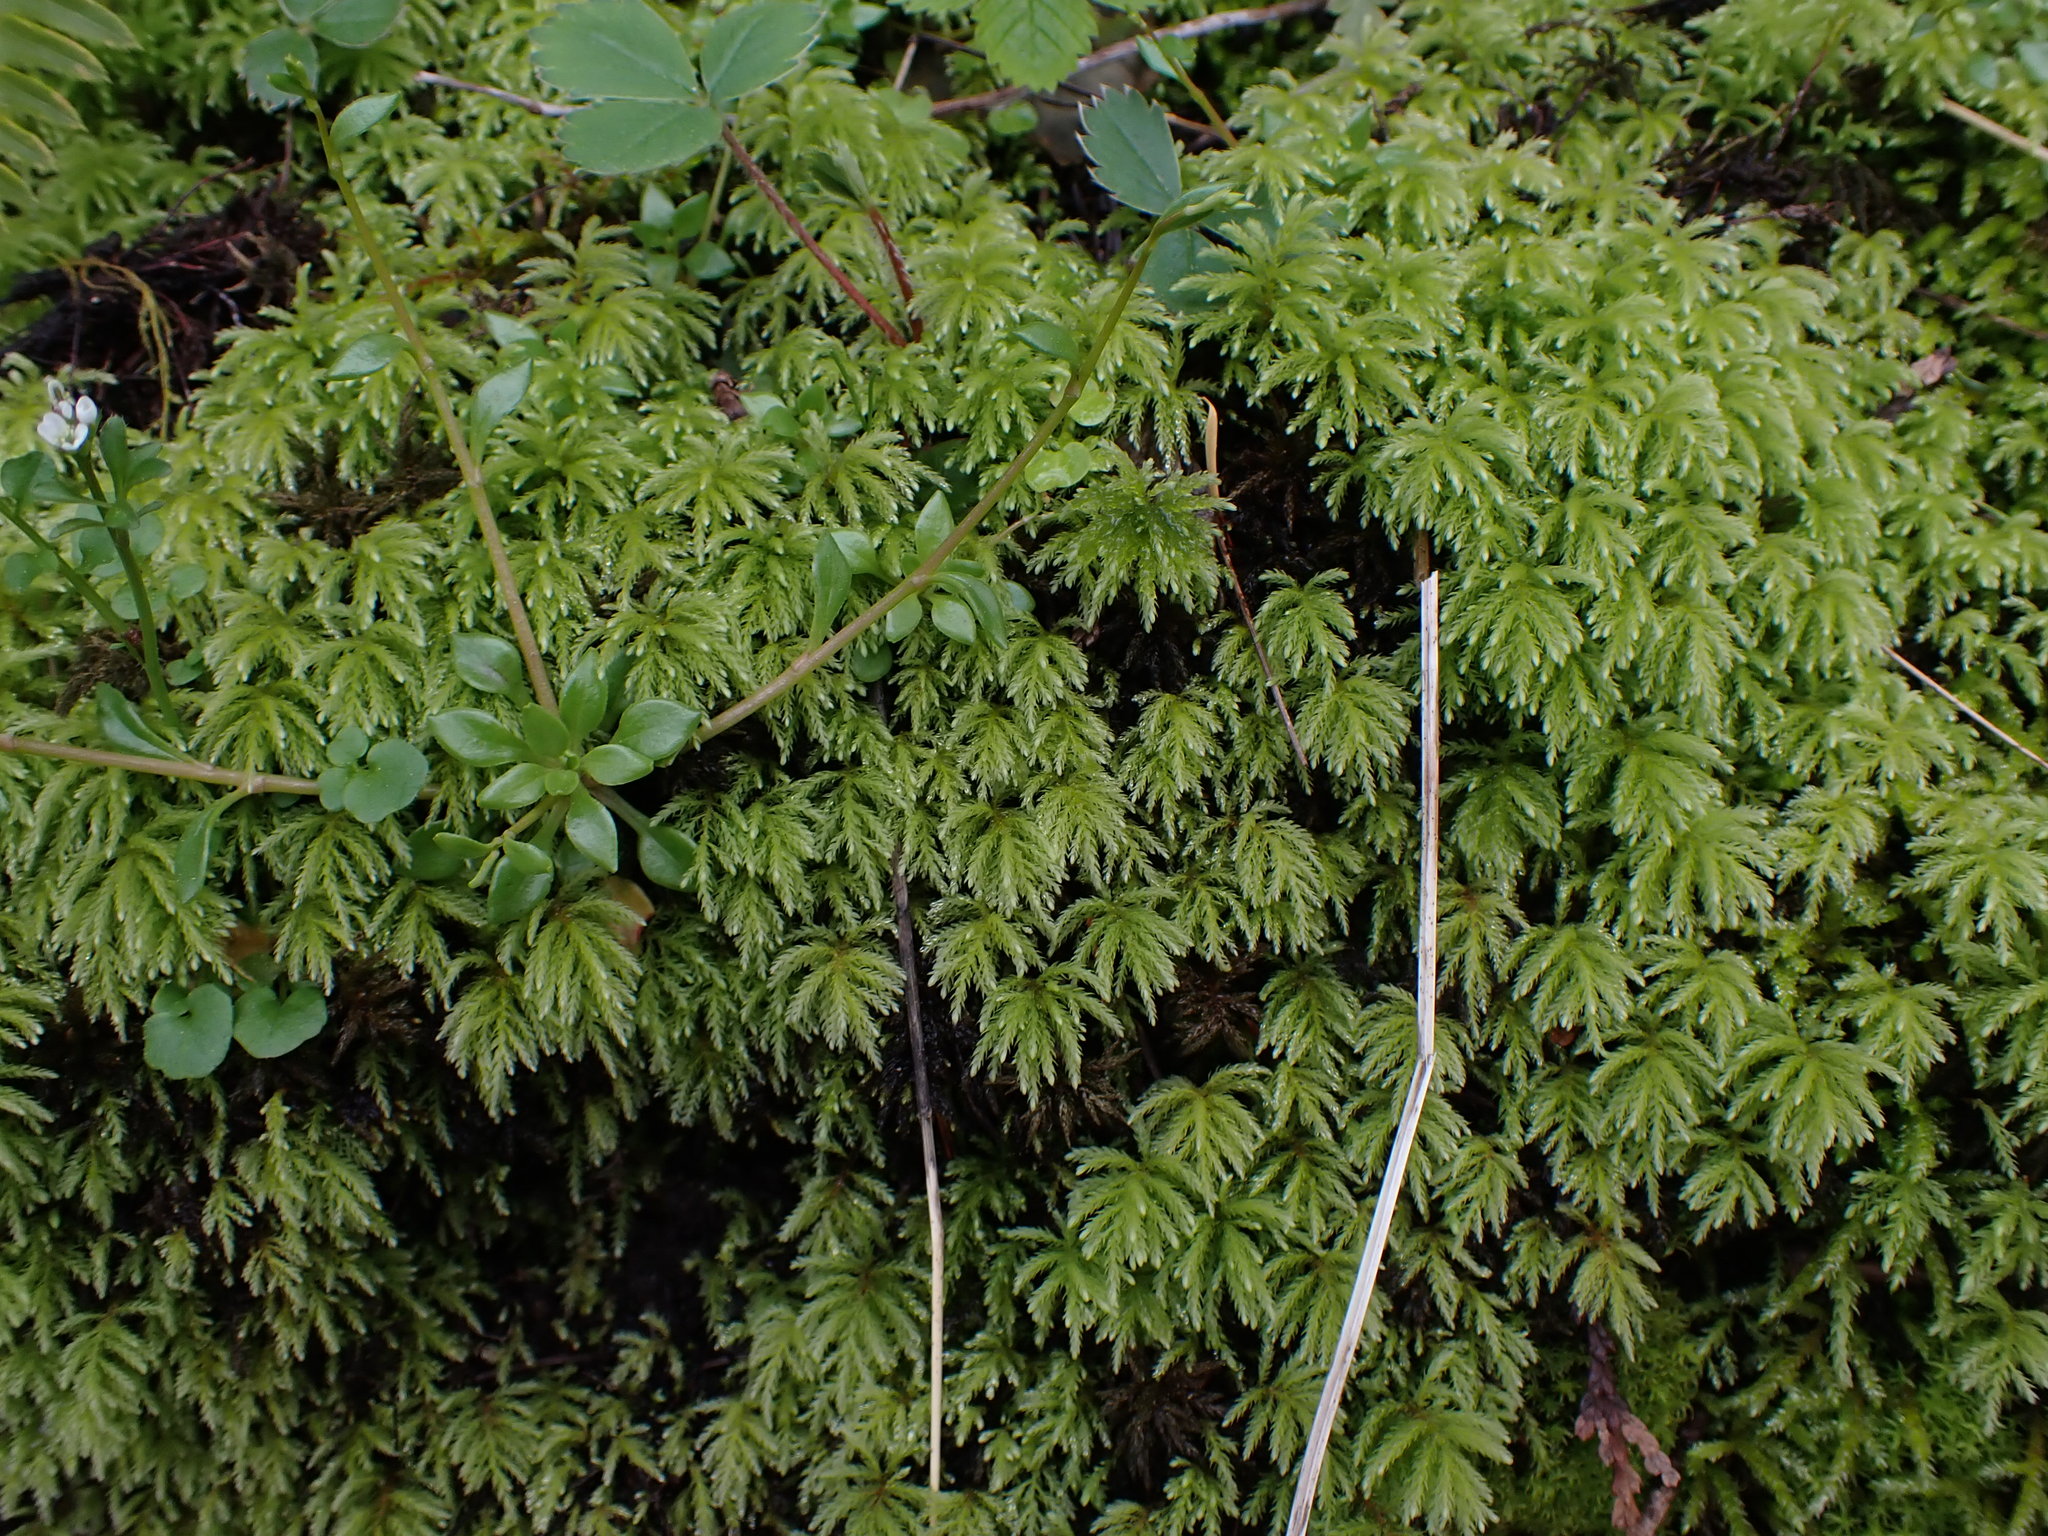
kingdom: Plantae
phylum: Bryophyta
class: Bryopsida
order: Bryales
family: Mniaceae
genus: Leucolepis
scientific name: Leucolepis acanthoneura
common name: Leucolepis umbrella moss
